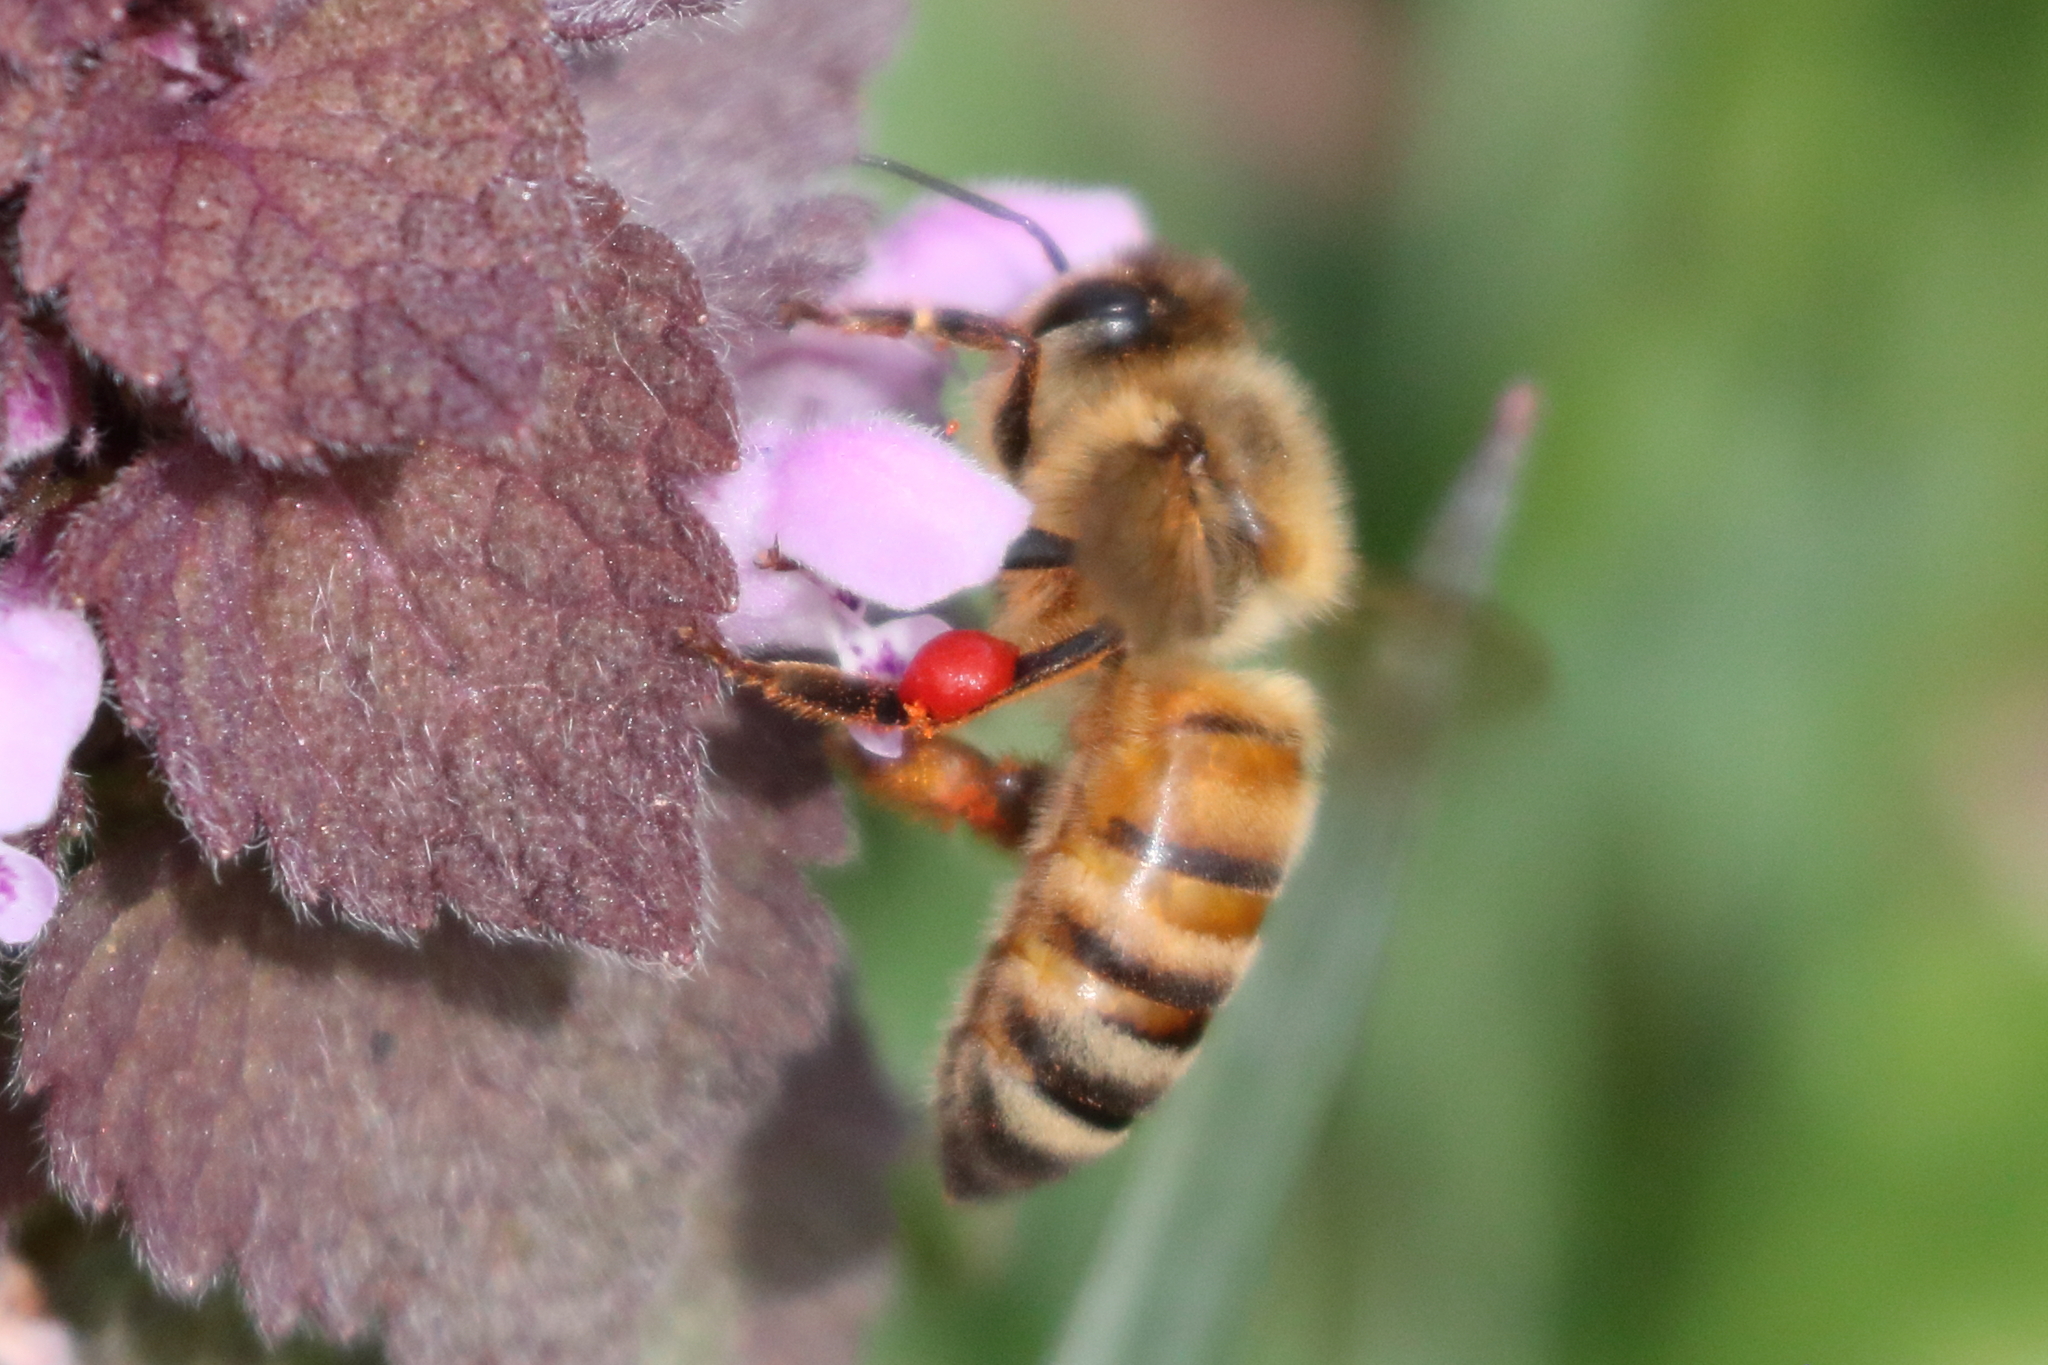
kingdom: Animalia
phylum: Arthropoda
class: Insecta
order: Hymenoptera
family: Apidae
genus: Apis
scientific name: Apis mellifera
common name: Honey bee
